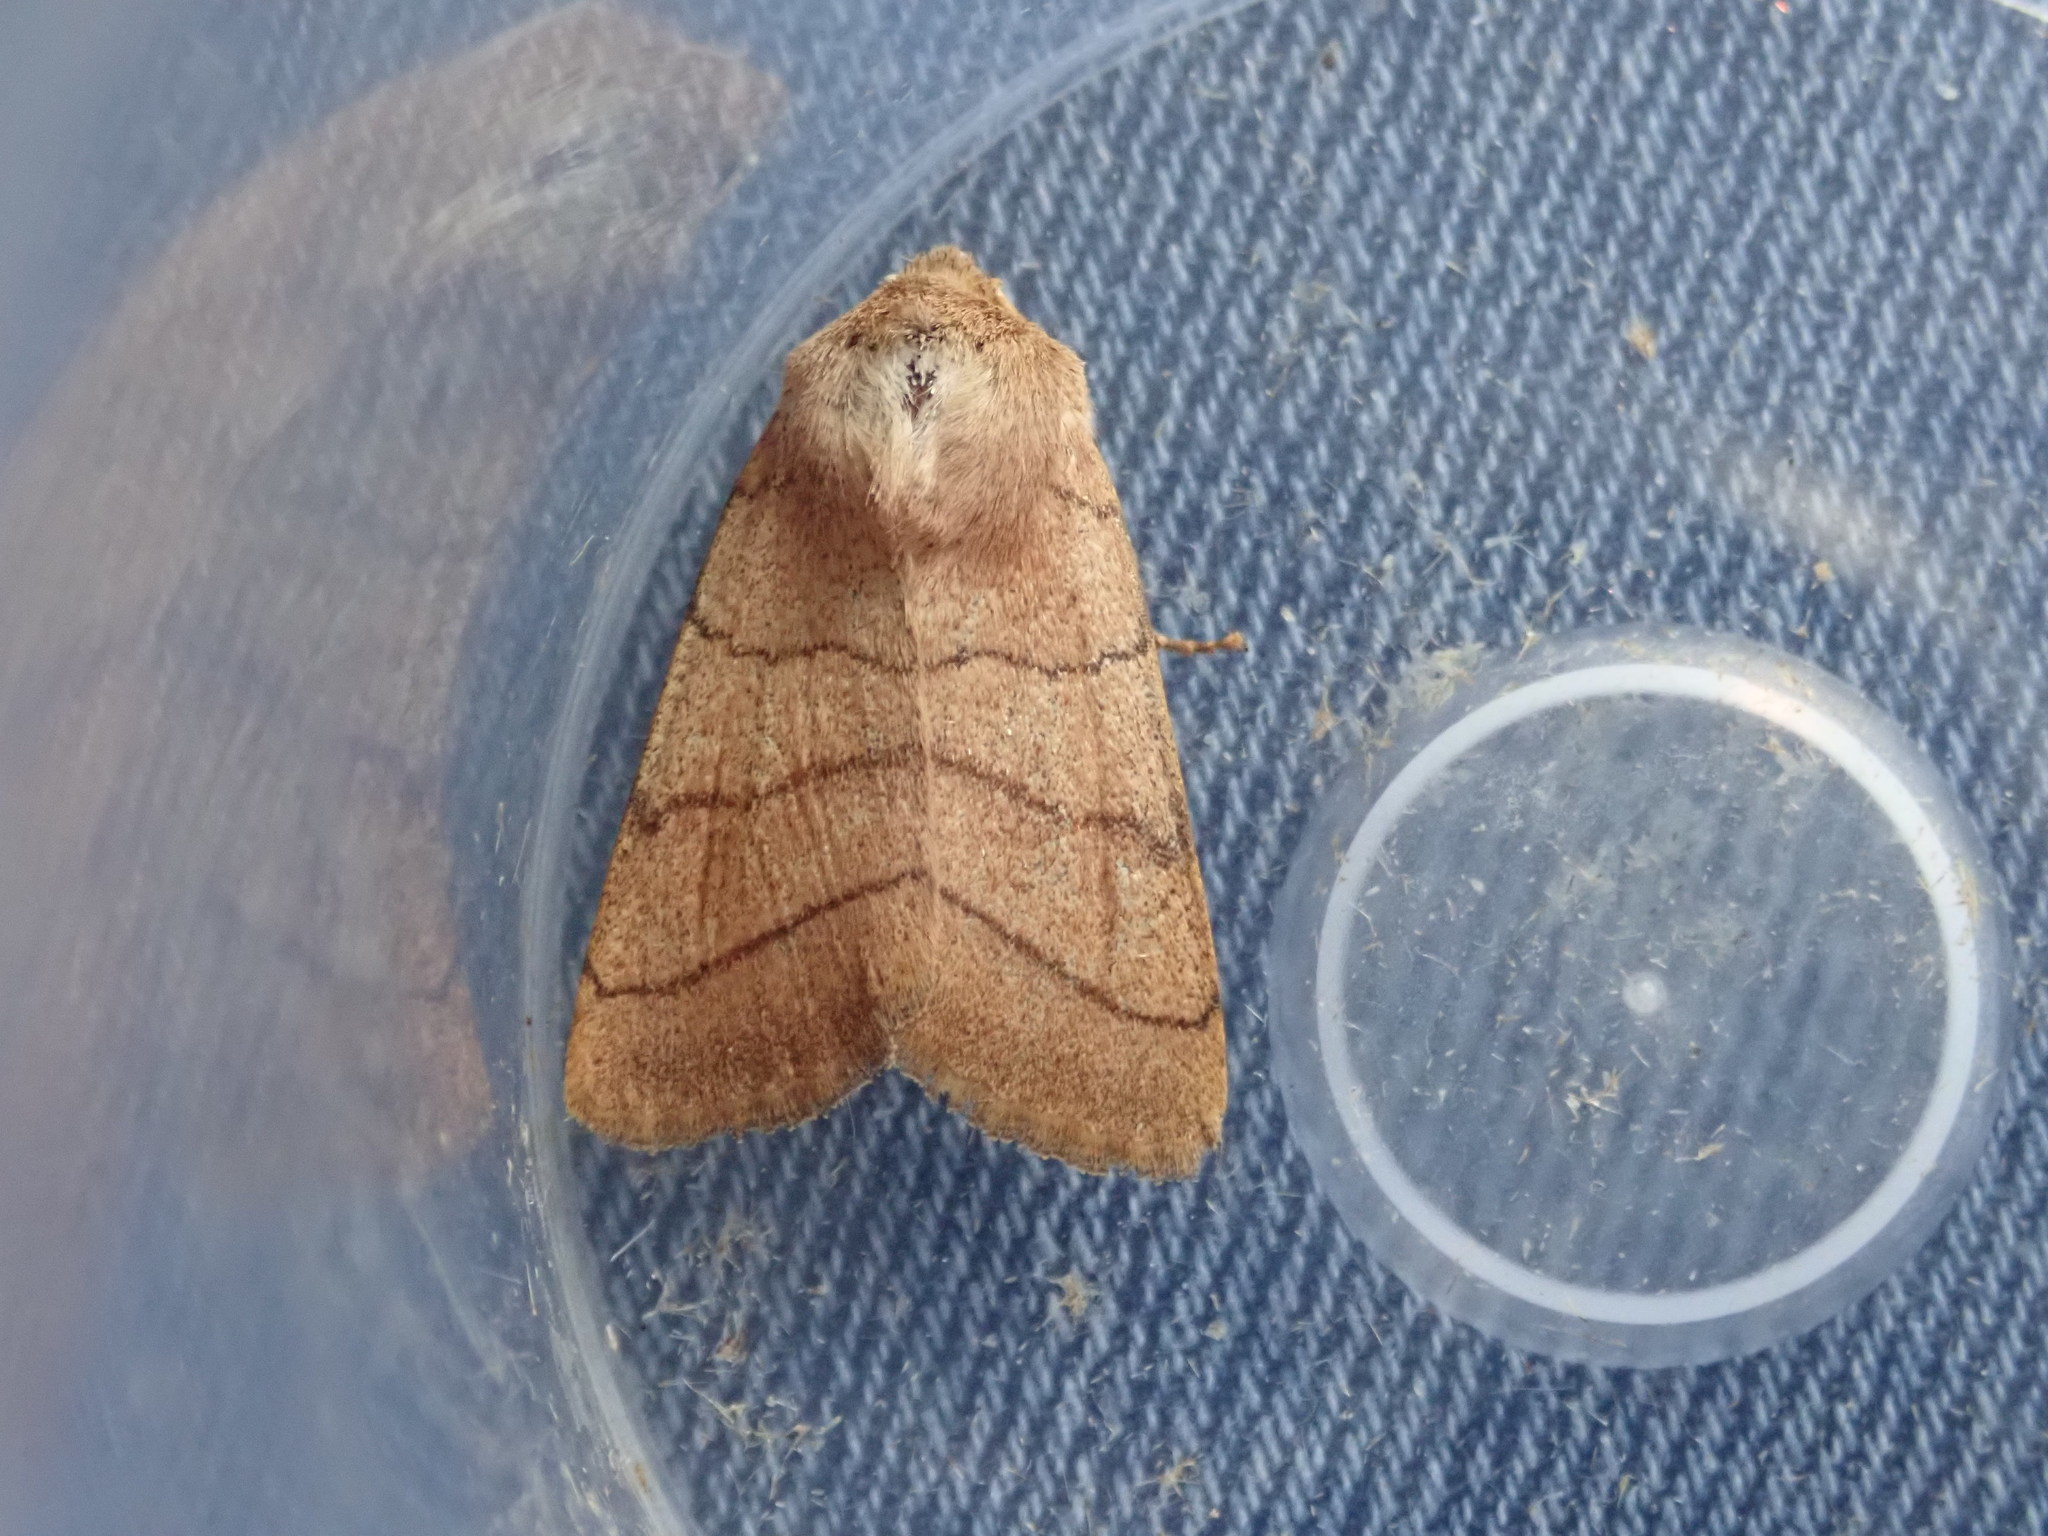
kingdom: Animalia
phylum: Arthropoda
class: Insecta
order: Lepidoptera
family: Noctuidae
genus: Charanyca
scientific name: Charanyca trigrammica
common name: Treble lines
